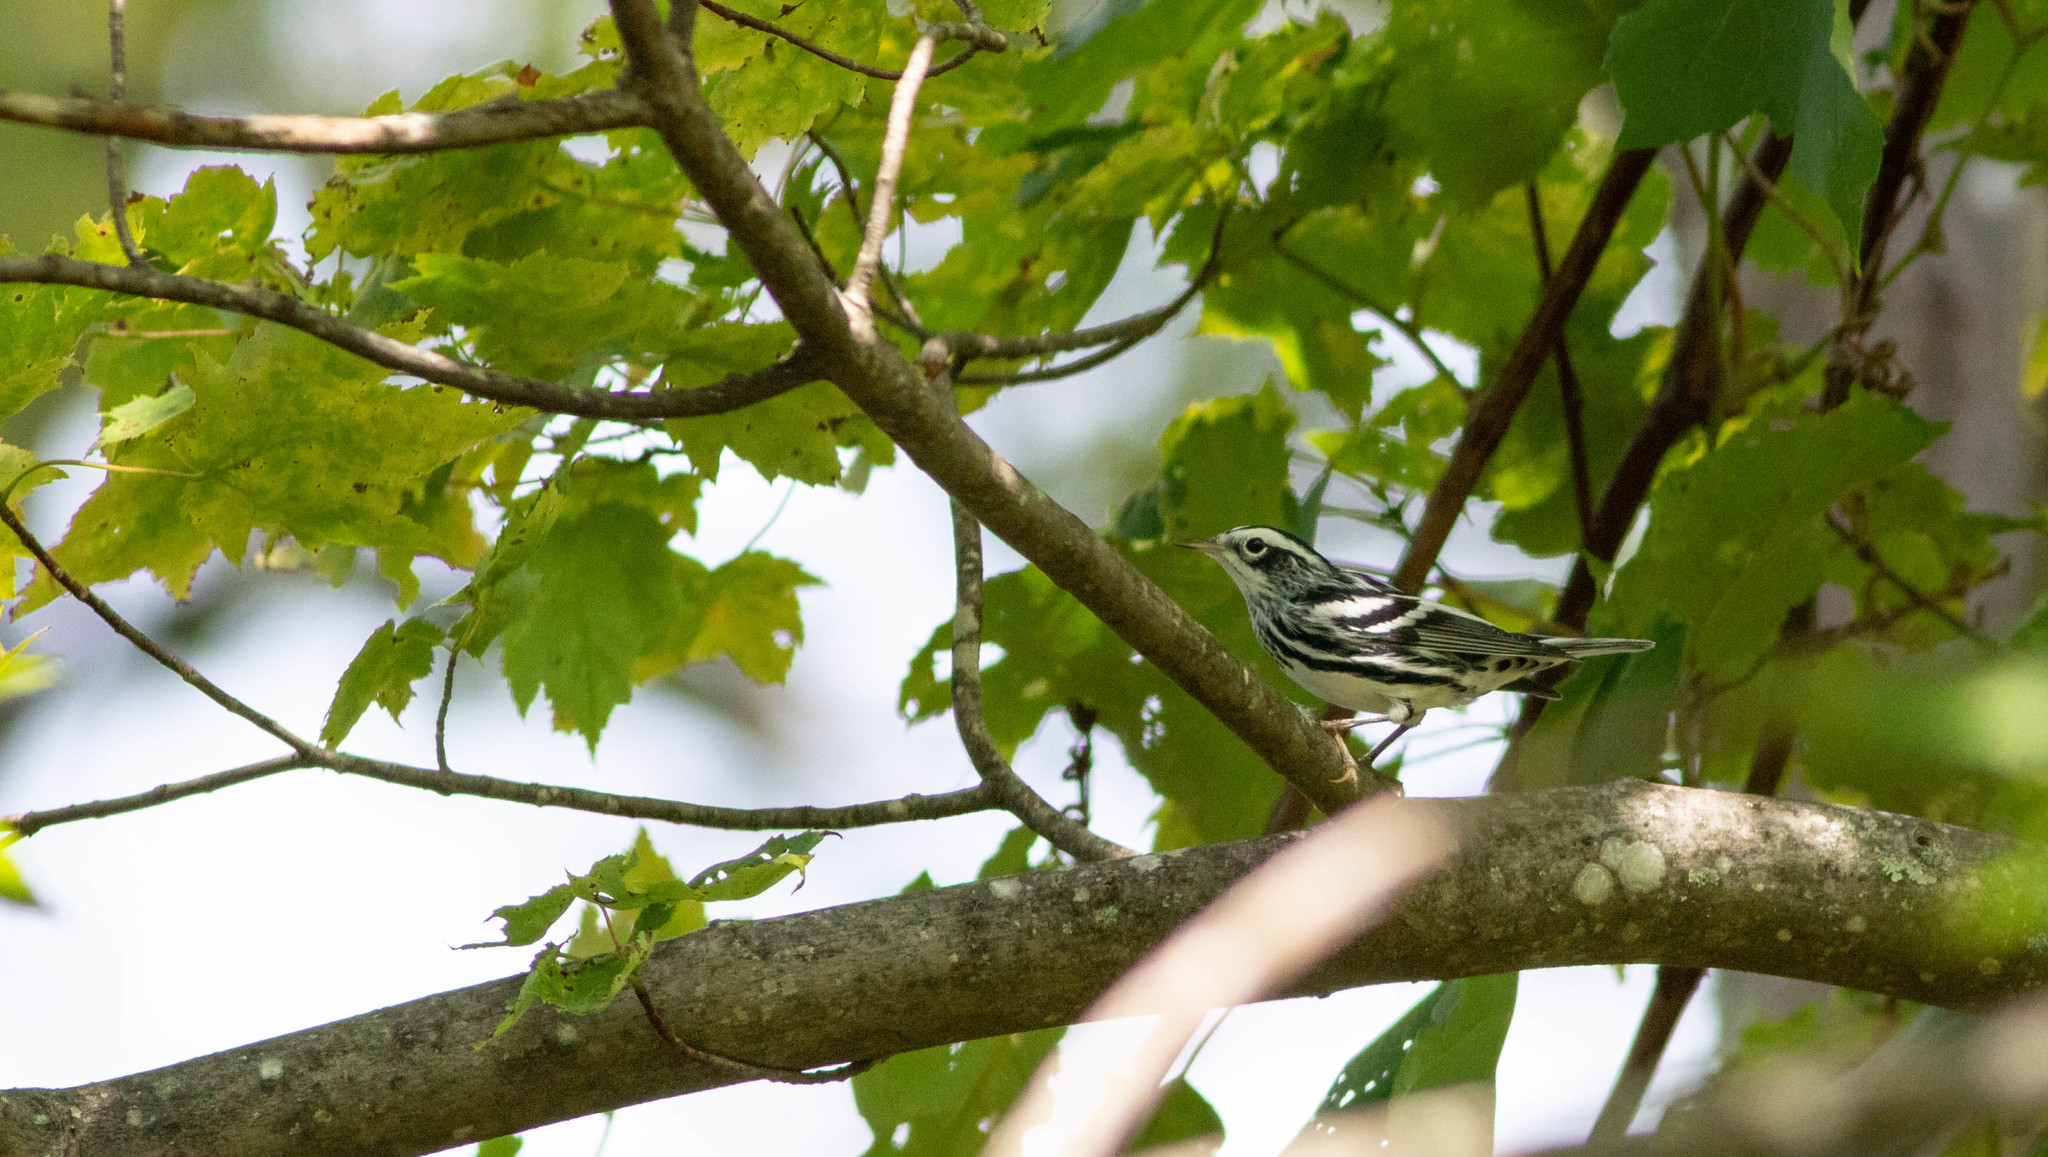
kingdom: Animalia
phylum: Chordata
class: Aves
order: Passeriformes
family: Parulidae
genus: Mniotilta
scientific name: Mniotilta varia
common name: Black-and-white warbler
